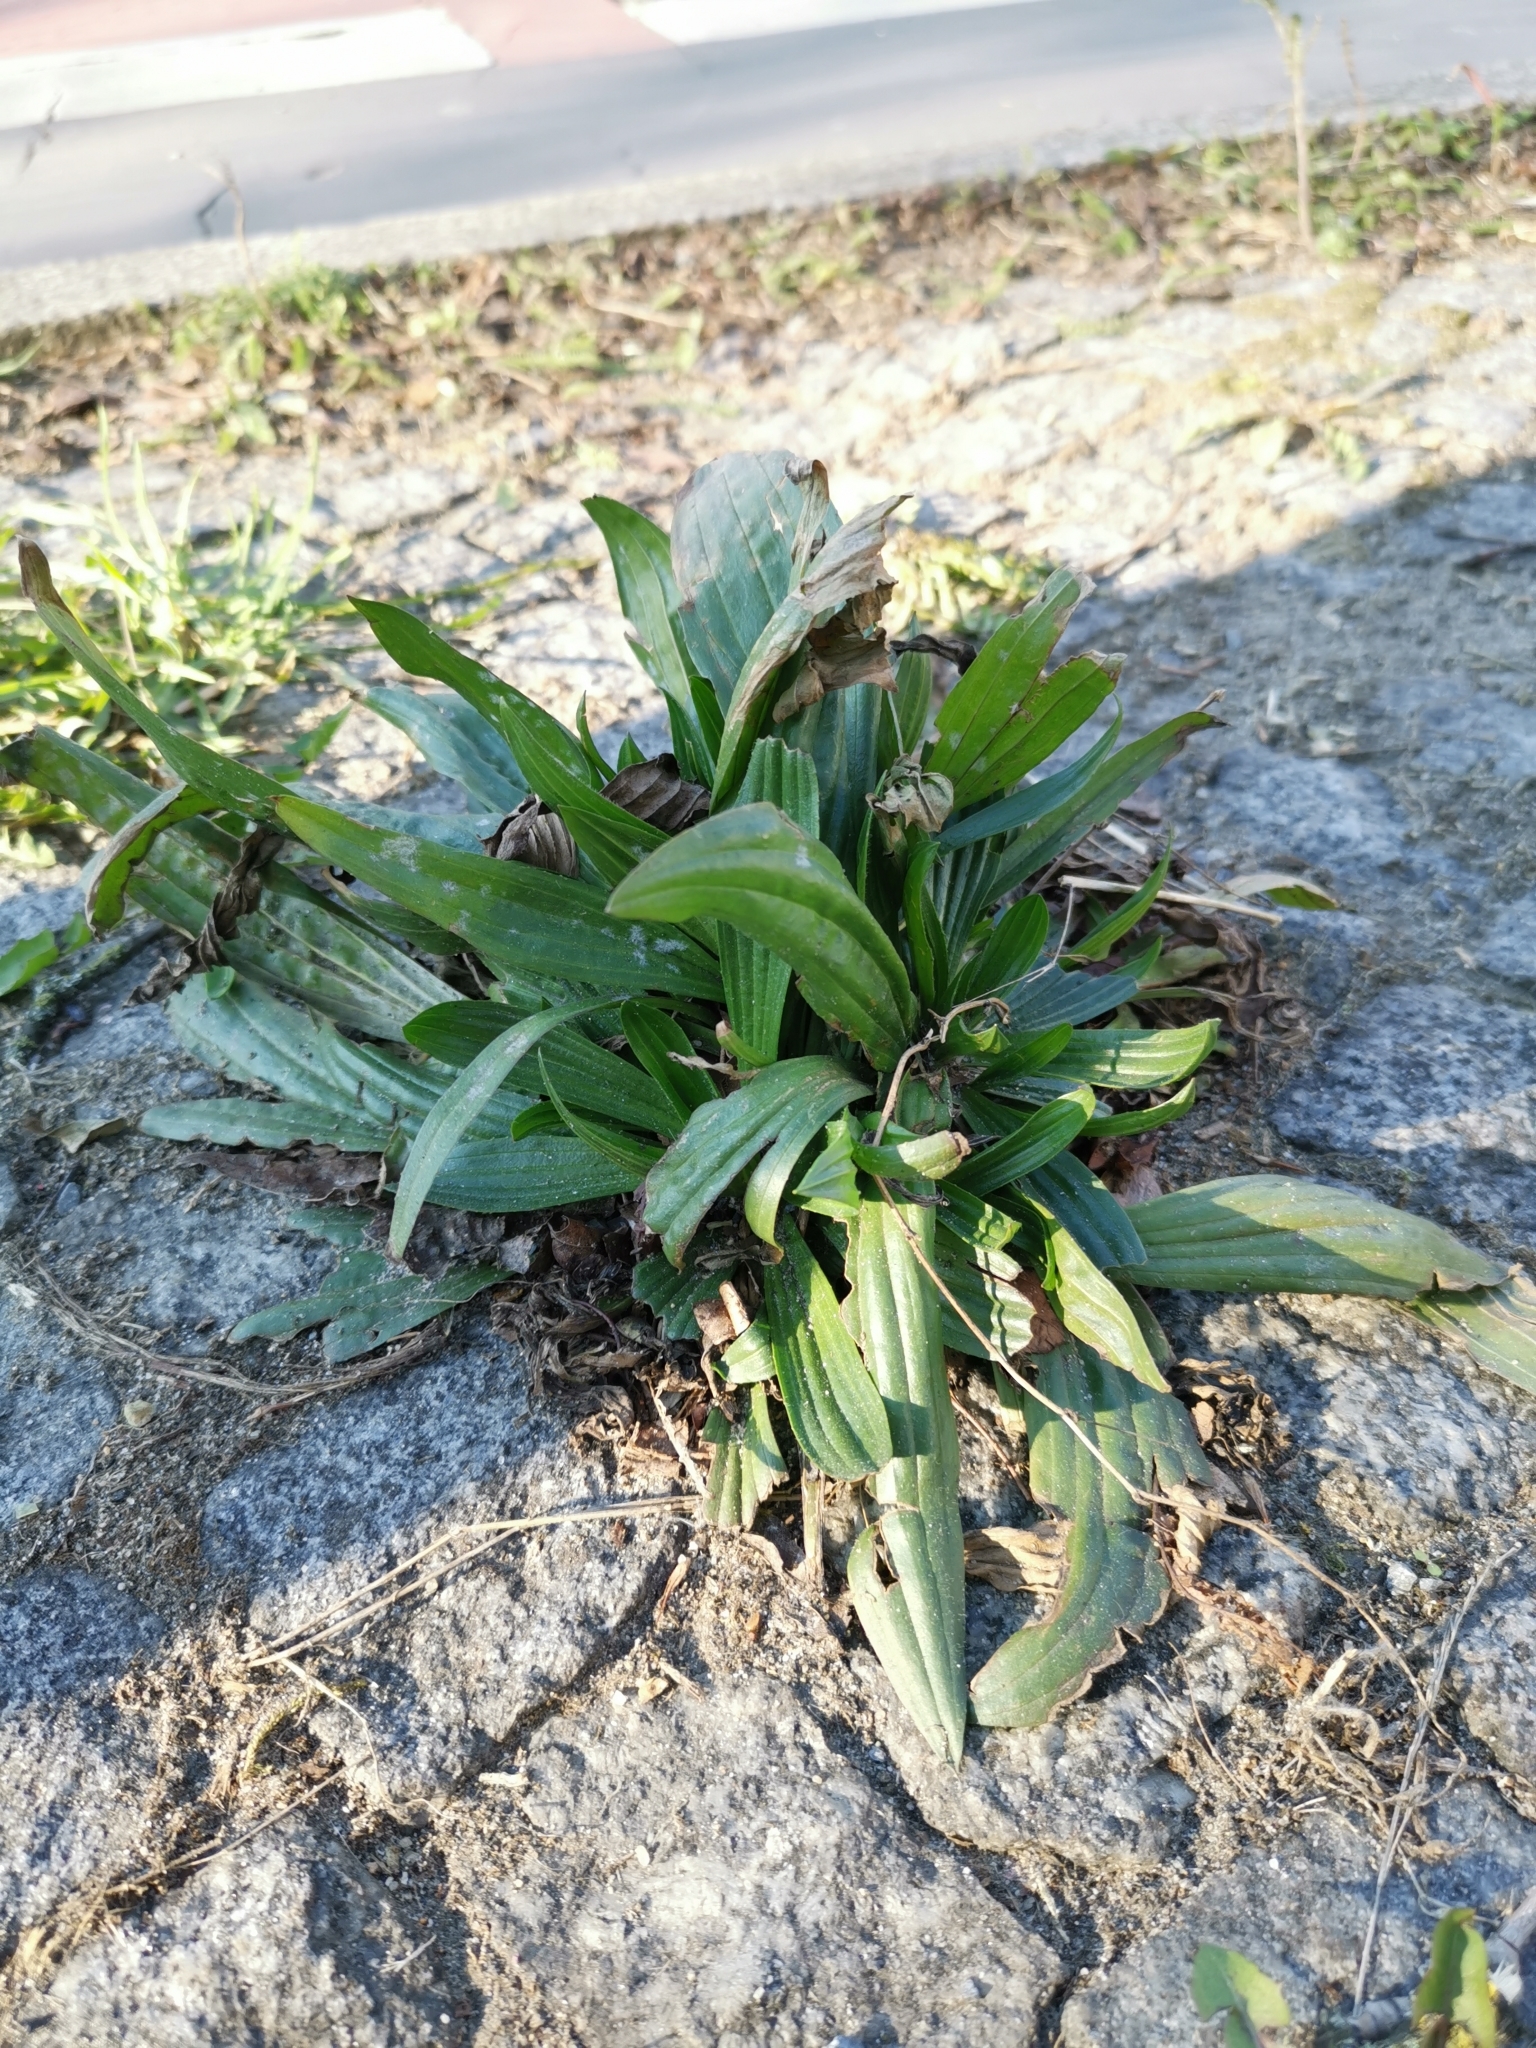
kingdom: Plantae
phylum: Tracheophyta
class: Magnoliopsida
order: Lamiales
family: Plantaginaceae
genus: Plantago
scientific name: Plantago lanceolata
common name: Ribwort plantain
